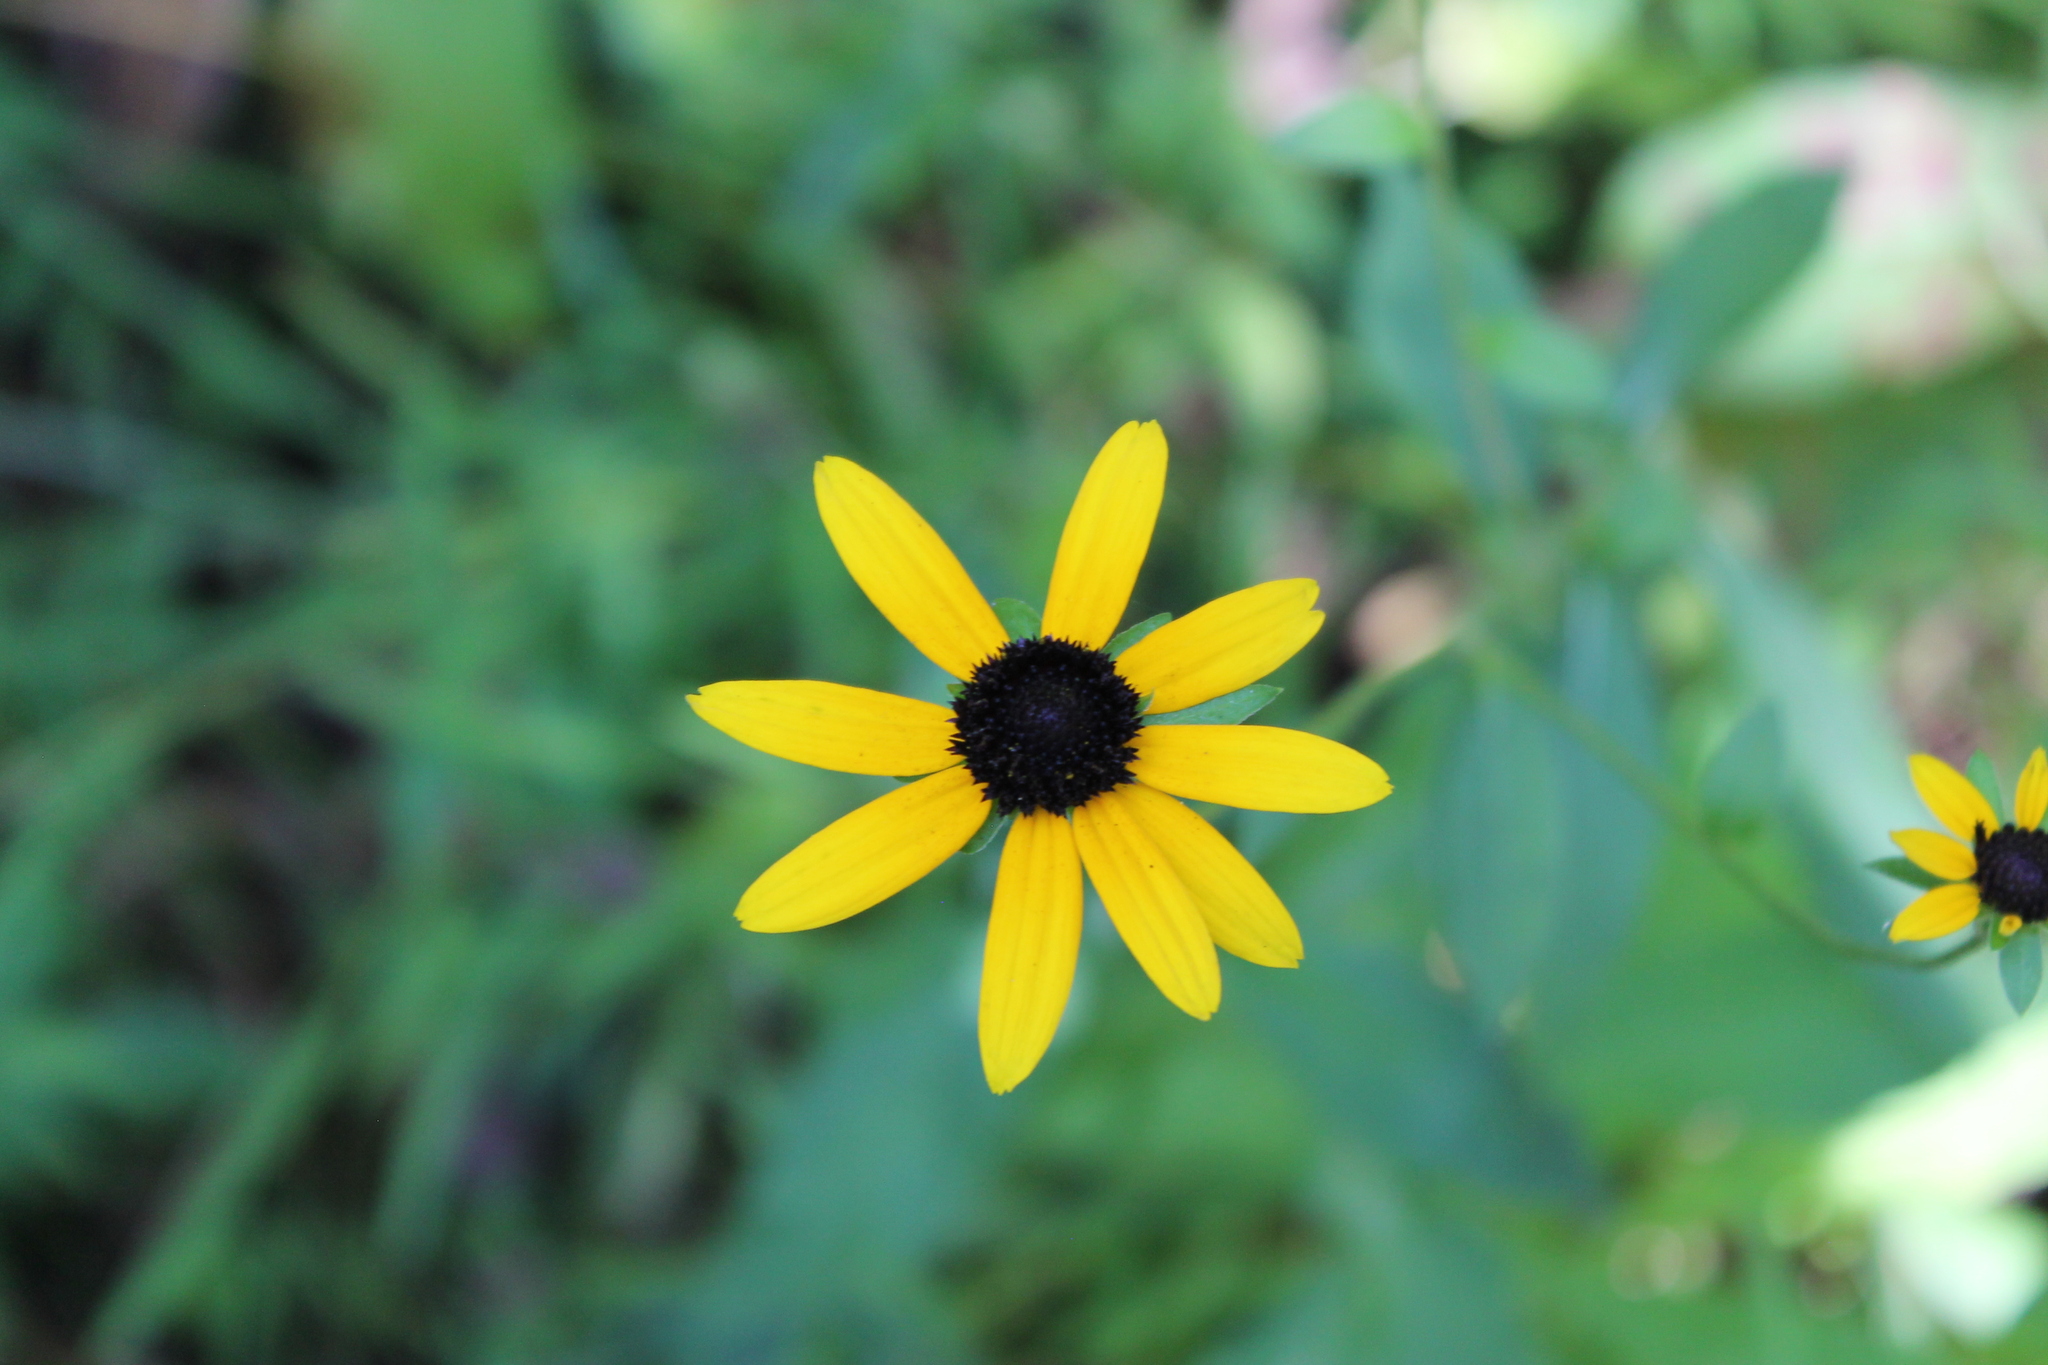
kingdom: Plantae
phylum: Tracheophyta
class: Magnoliopsida
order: Asterales
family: Asteraceae
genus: Rudbeckia
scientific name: Rudbeckia palustris
